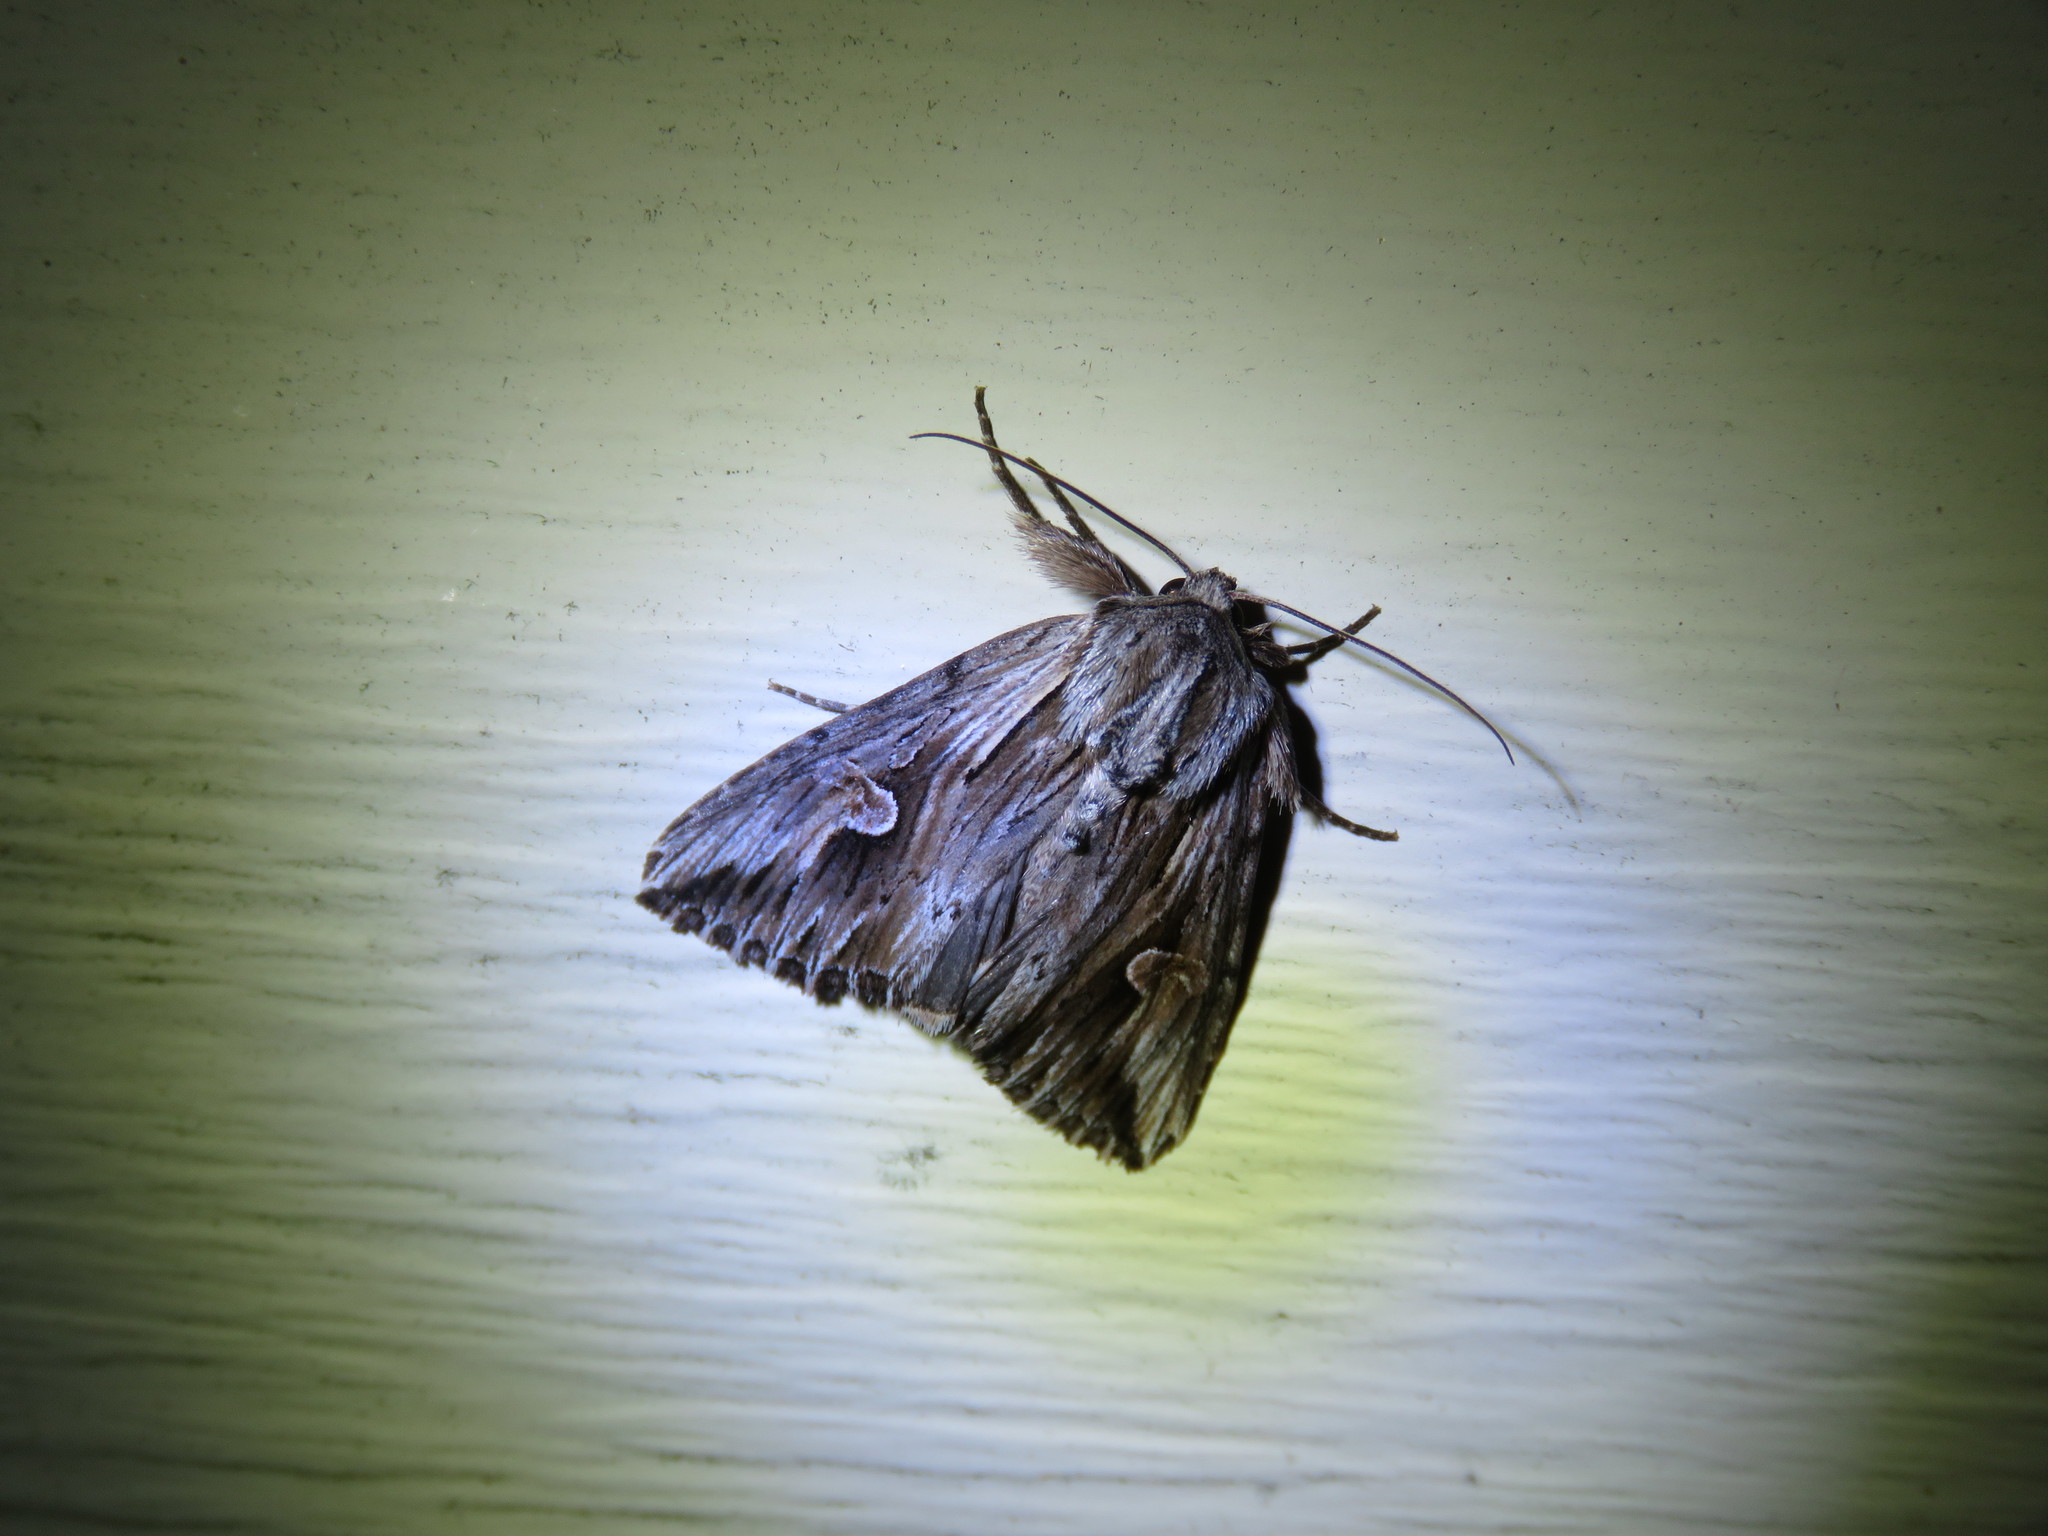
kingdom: Animalia
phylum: Arthropoda
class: Insecta
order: Lepidoptera
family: Noctuidae
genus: Nedra
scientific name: Nedra ramosula
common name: Gray half-spot
